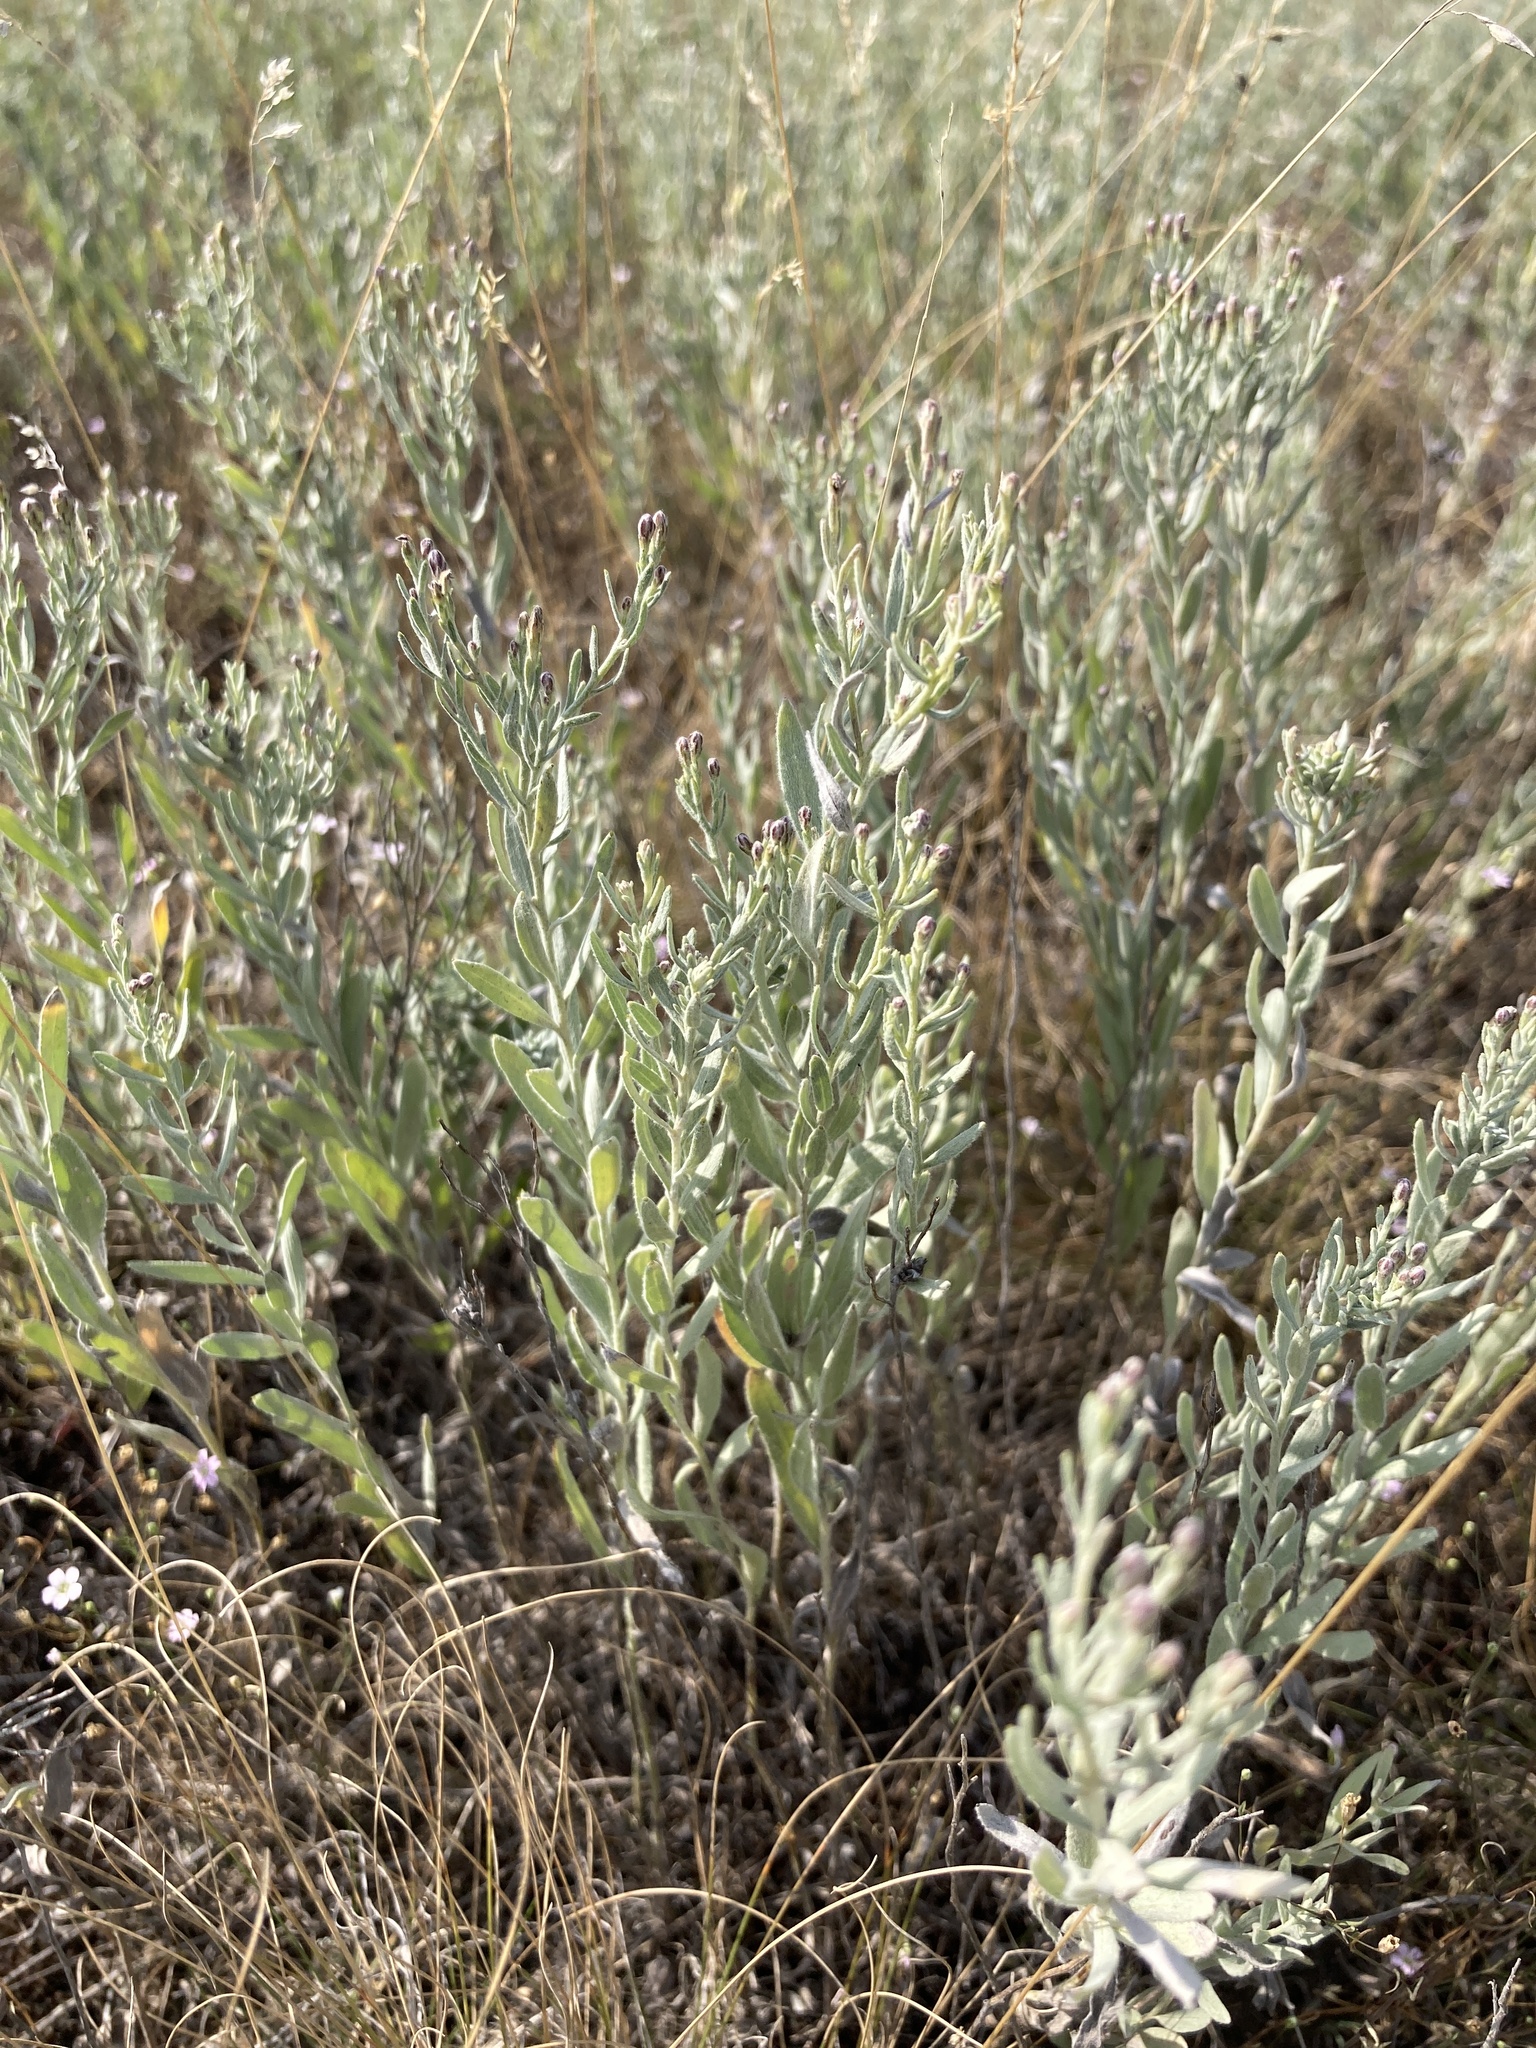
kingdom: Plantae
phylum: Tracheophyta
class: Magnoliopsida
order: Asterales
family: Asteraceae
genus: Galatella
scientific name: Galatella villosa
